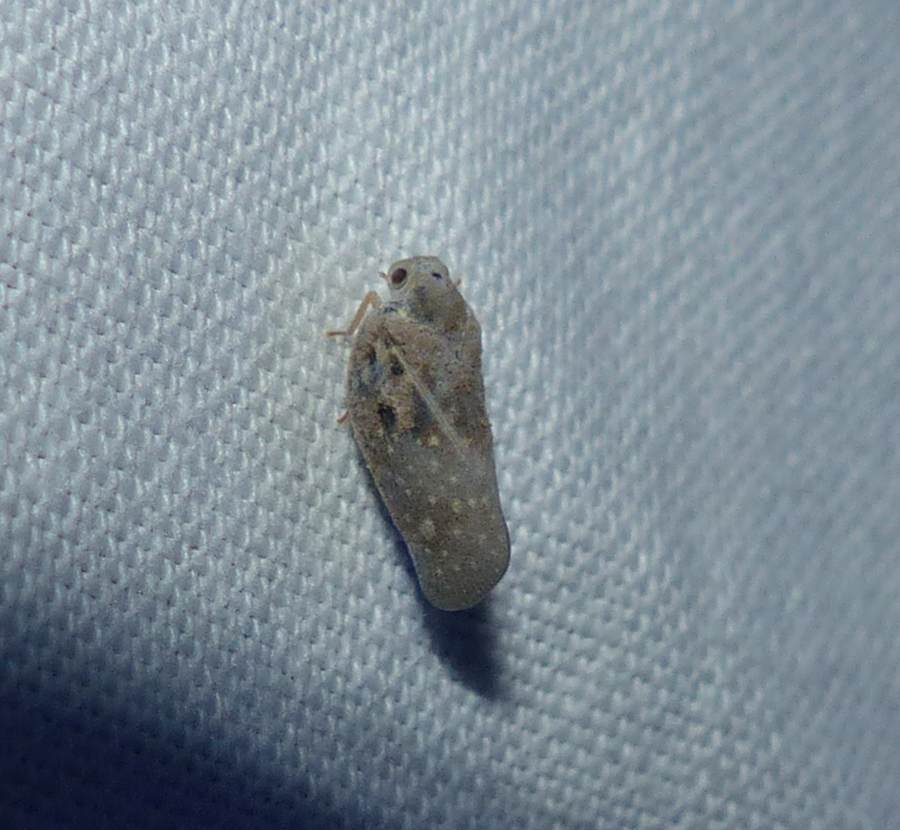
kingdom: Animalia
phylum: Arthropoda
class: Insecta
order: Hemiptera
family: Flatidae
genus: Metcalfa
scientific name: Metcalfa pruinosa
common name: Citrus flatid planthopper
